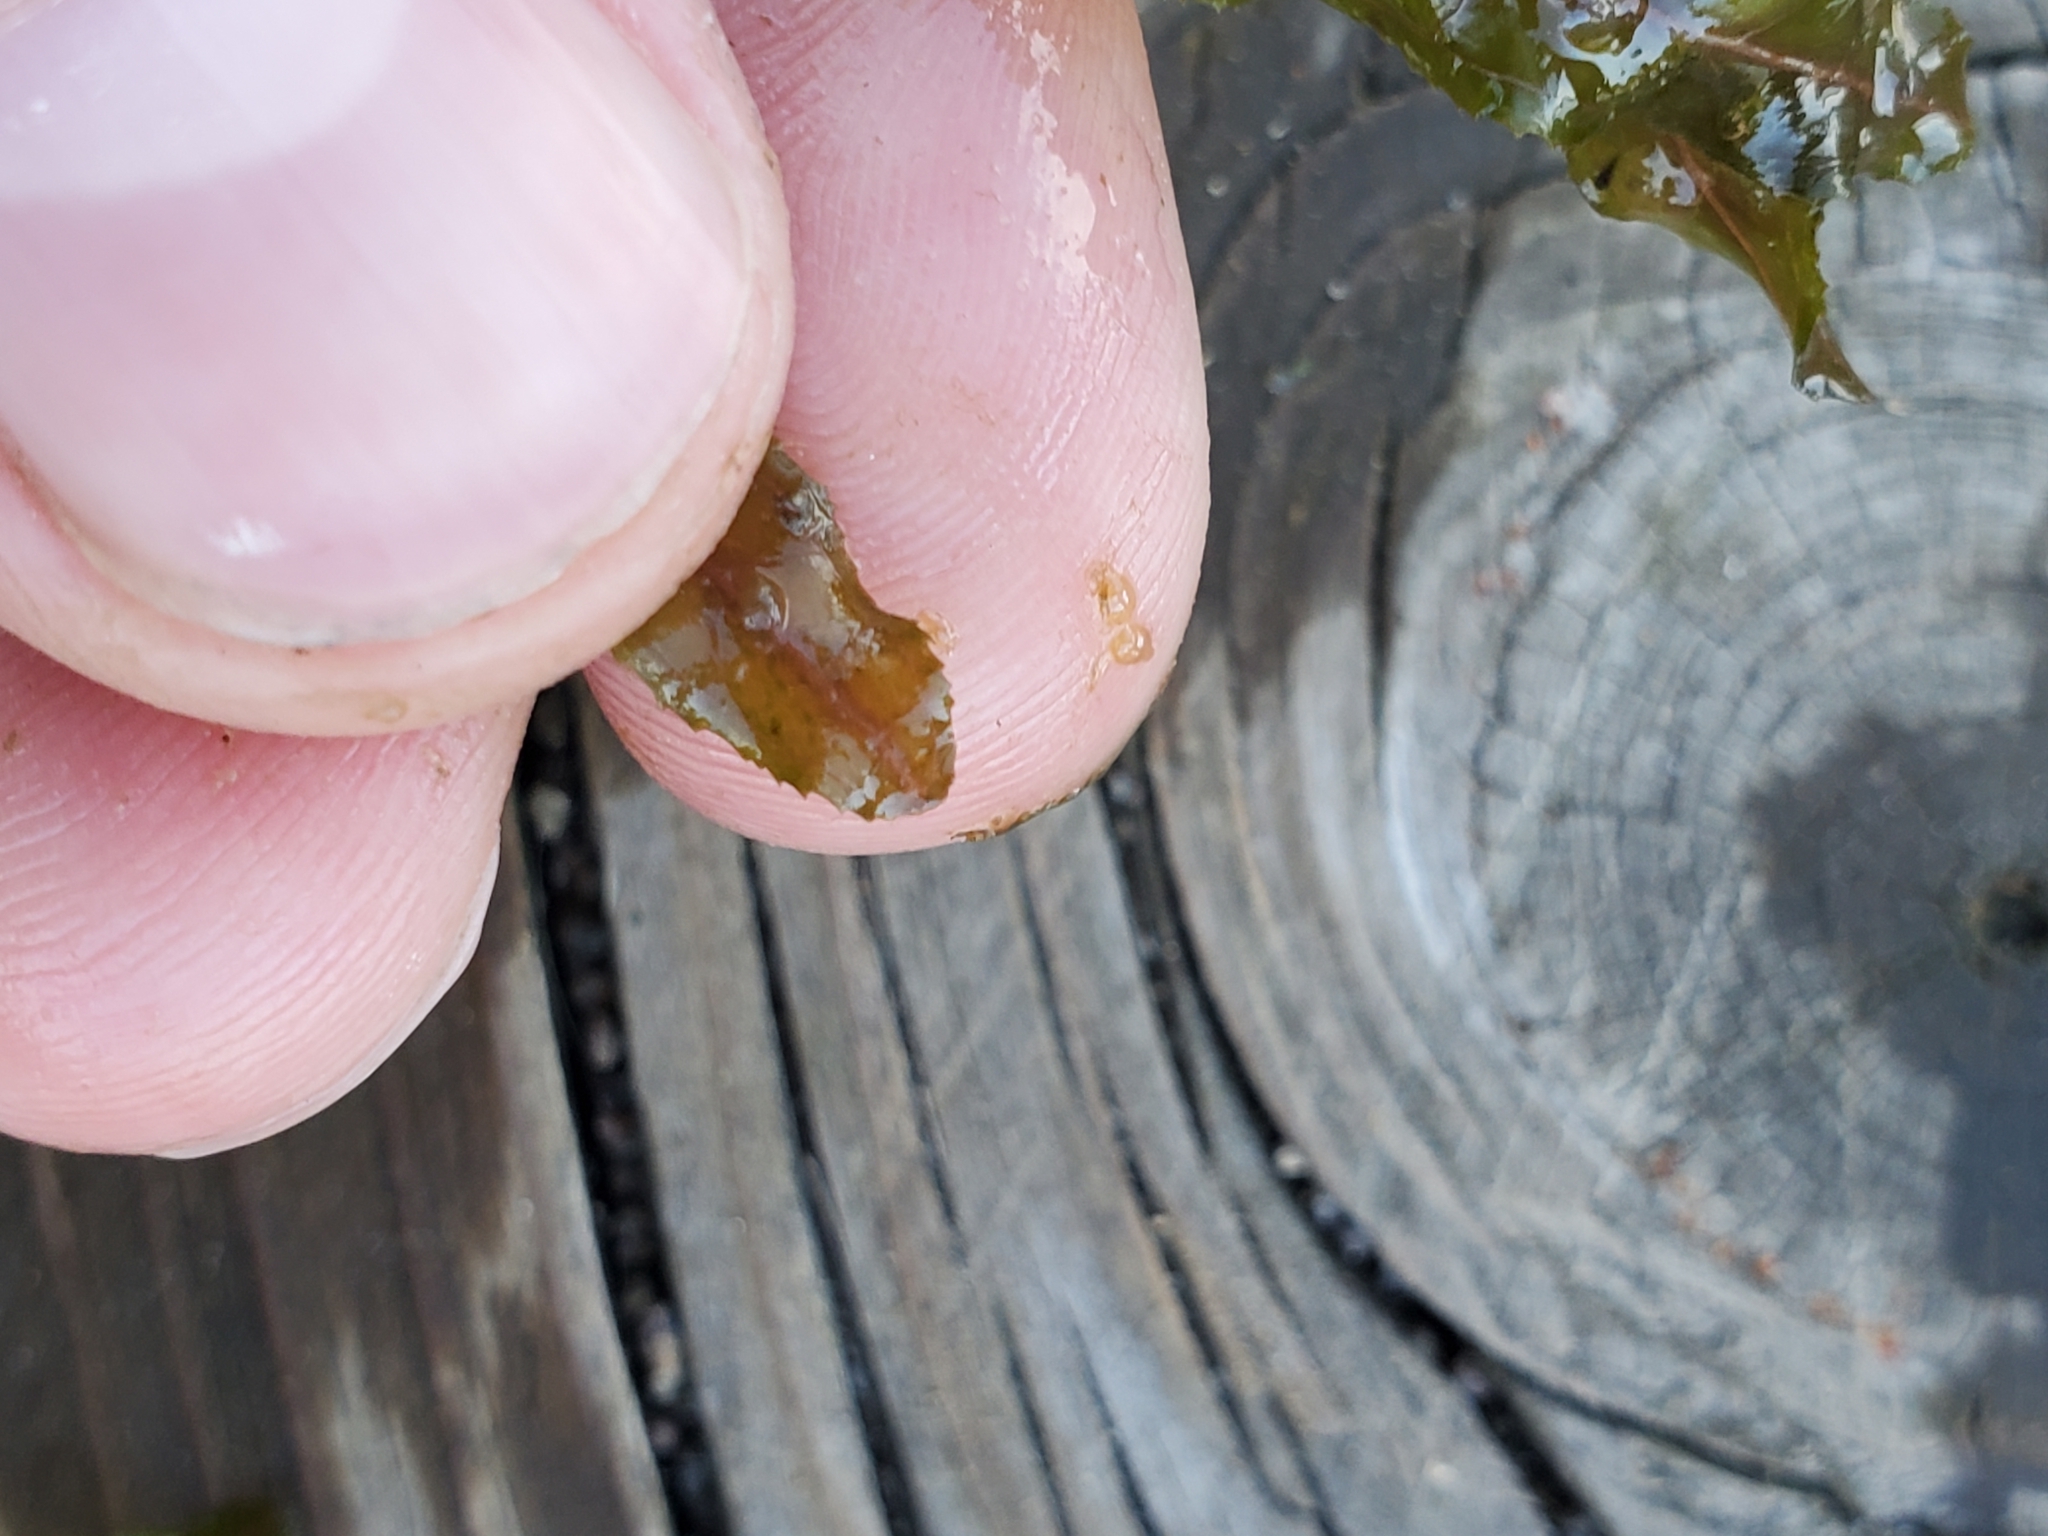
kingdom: Plantae
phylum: Tracheophyta
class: Liliopsida
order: Alismatales
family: Potamogetonaceae
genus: Potamogeton
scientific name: Potamogeton crispus
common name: Curled pondweed
